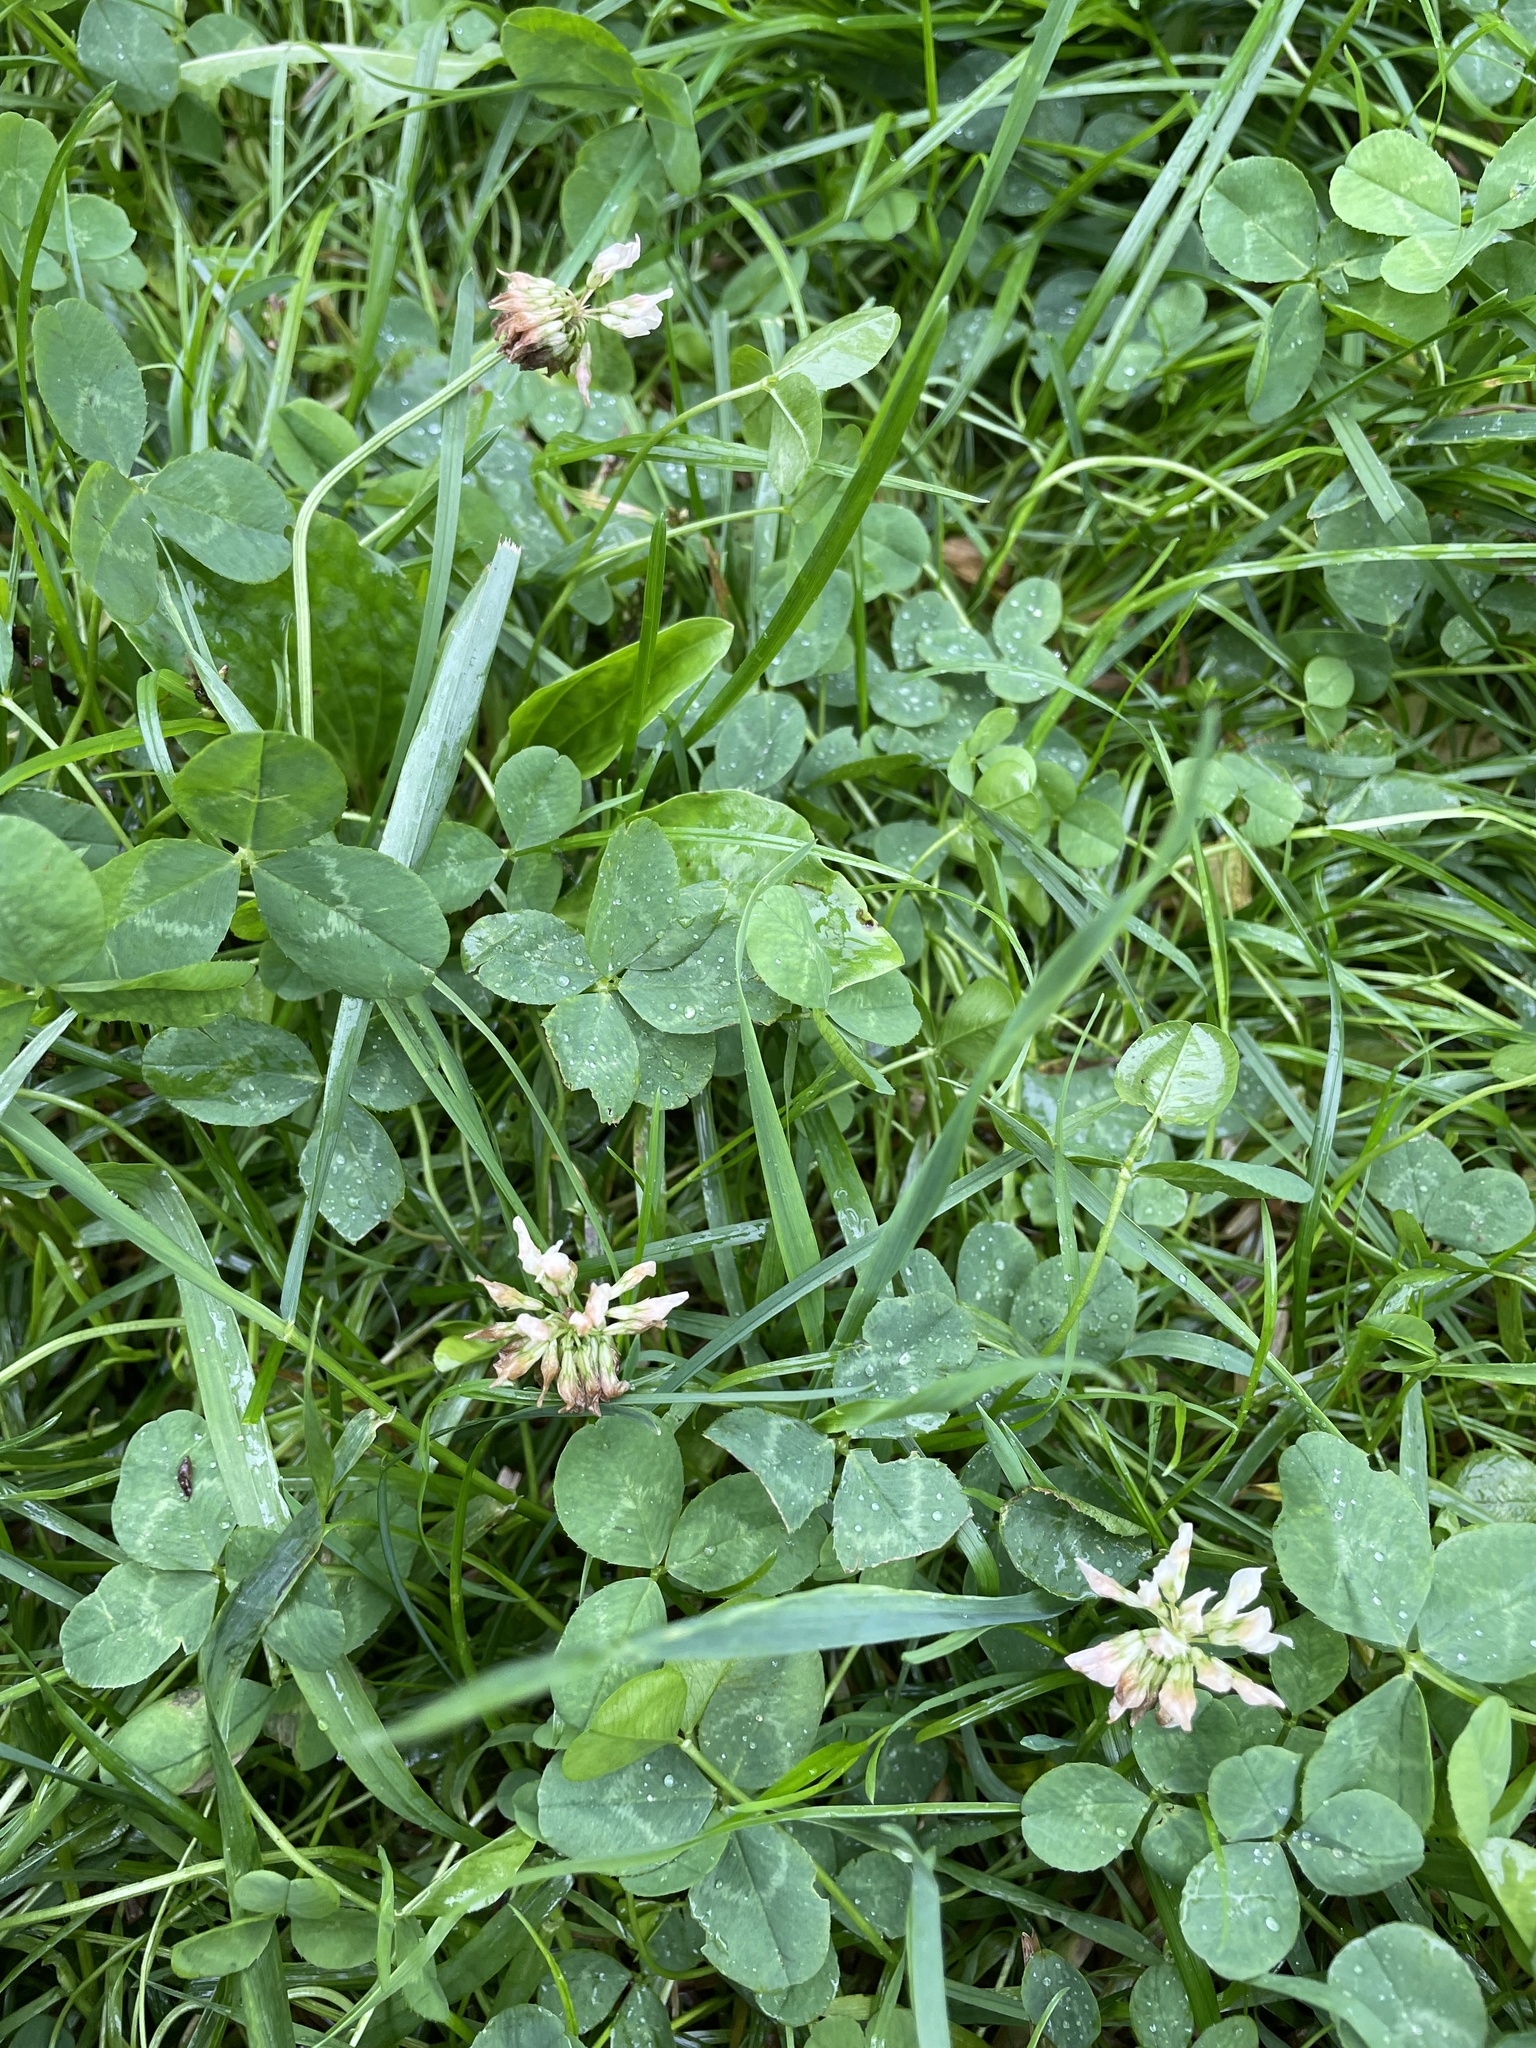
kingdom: Plantae
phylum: Tracheophyta
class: Magnoliopsida
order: Fabales
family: Fabaceae
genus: Trifolium
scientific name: Trifolium repens
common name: White clover
